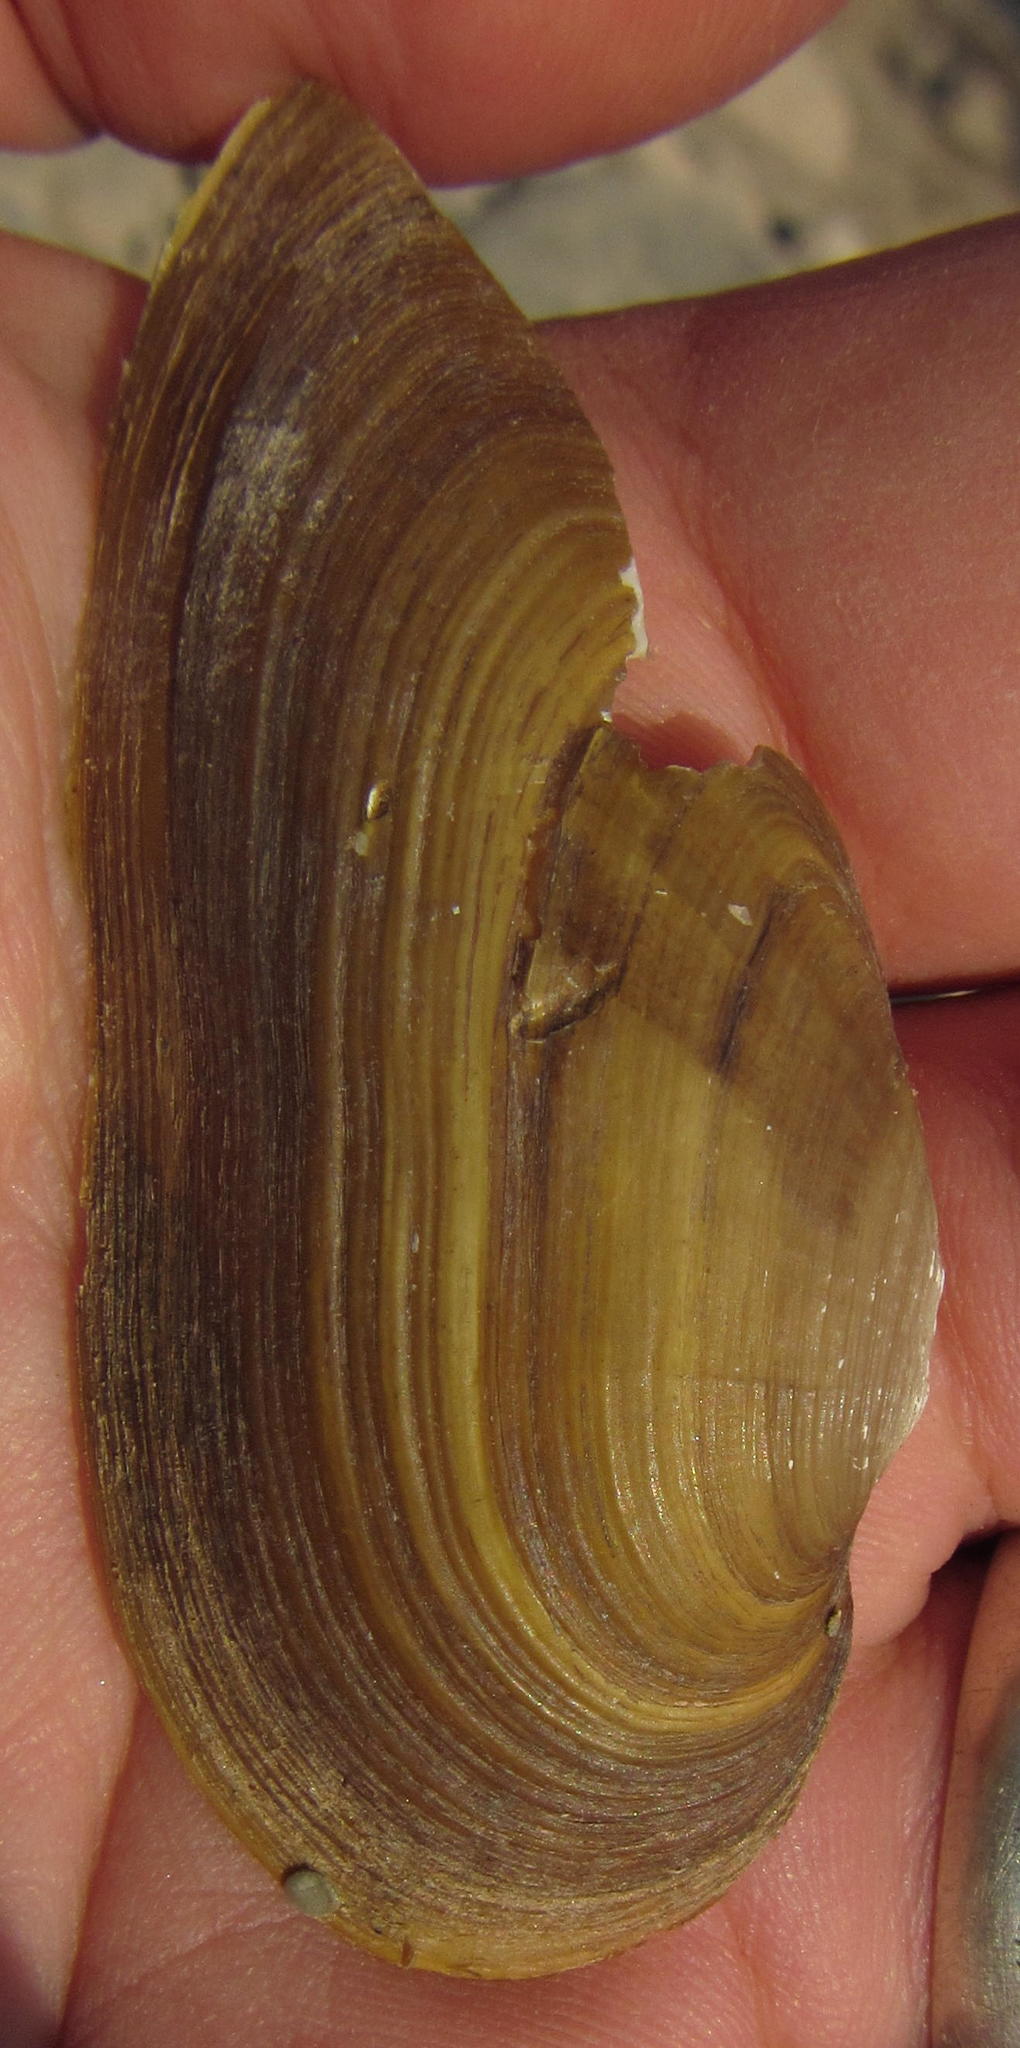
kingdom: Animalia
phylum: Mollusca
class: Bivalvia
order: Unionida
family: Unionidae
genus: Unio
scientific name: Unio caffer
